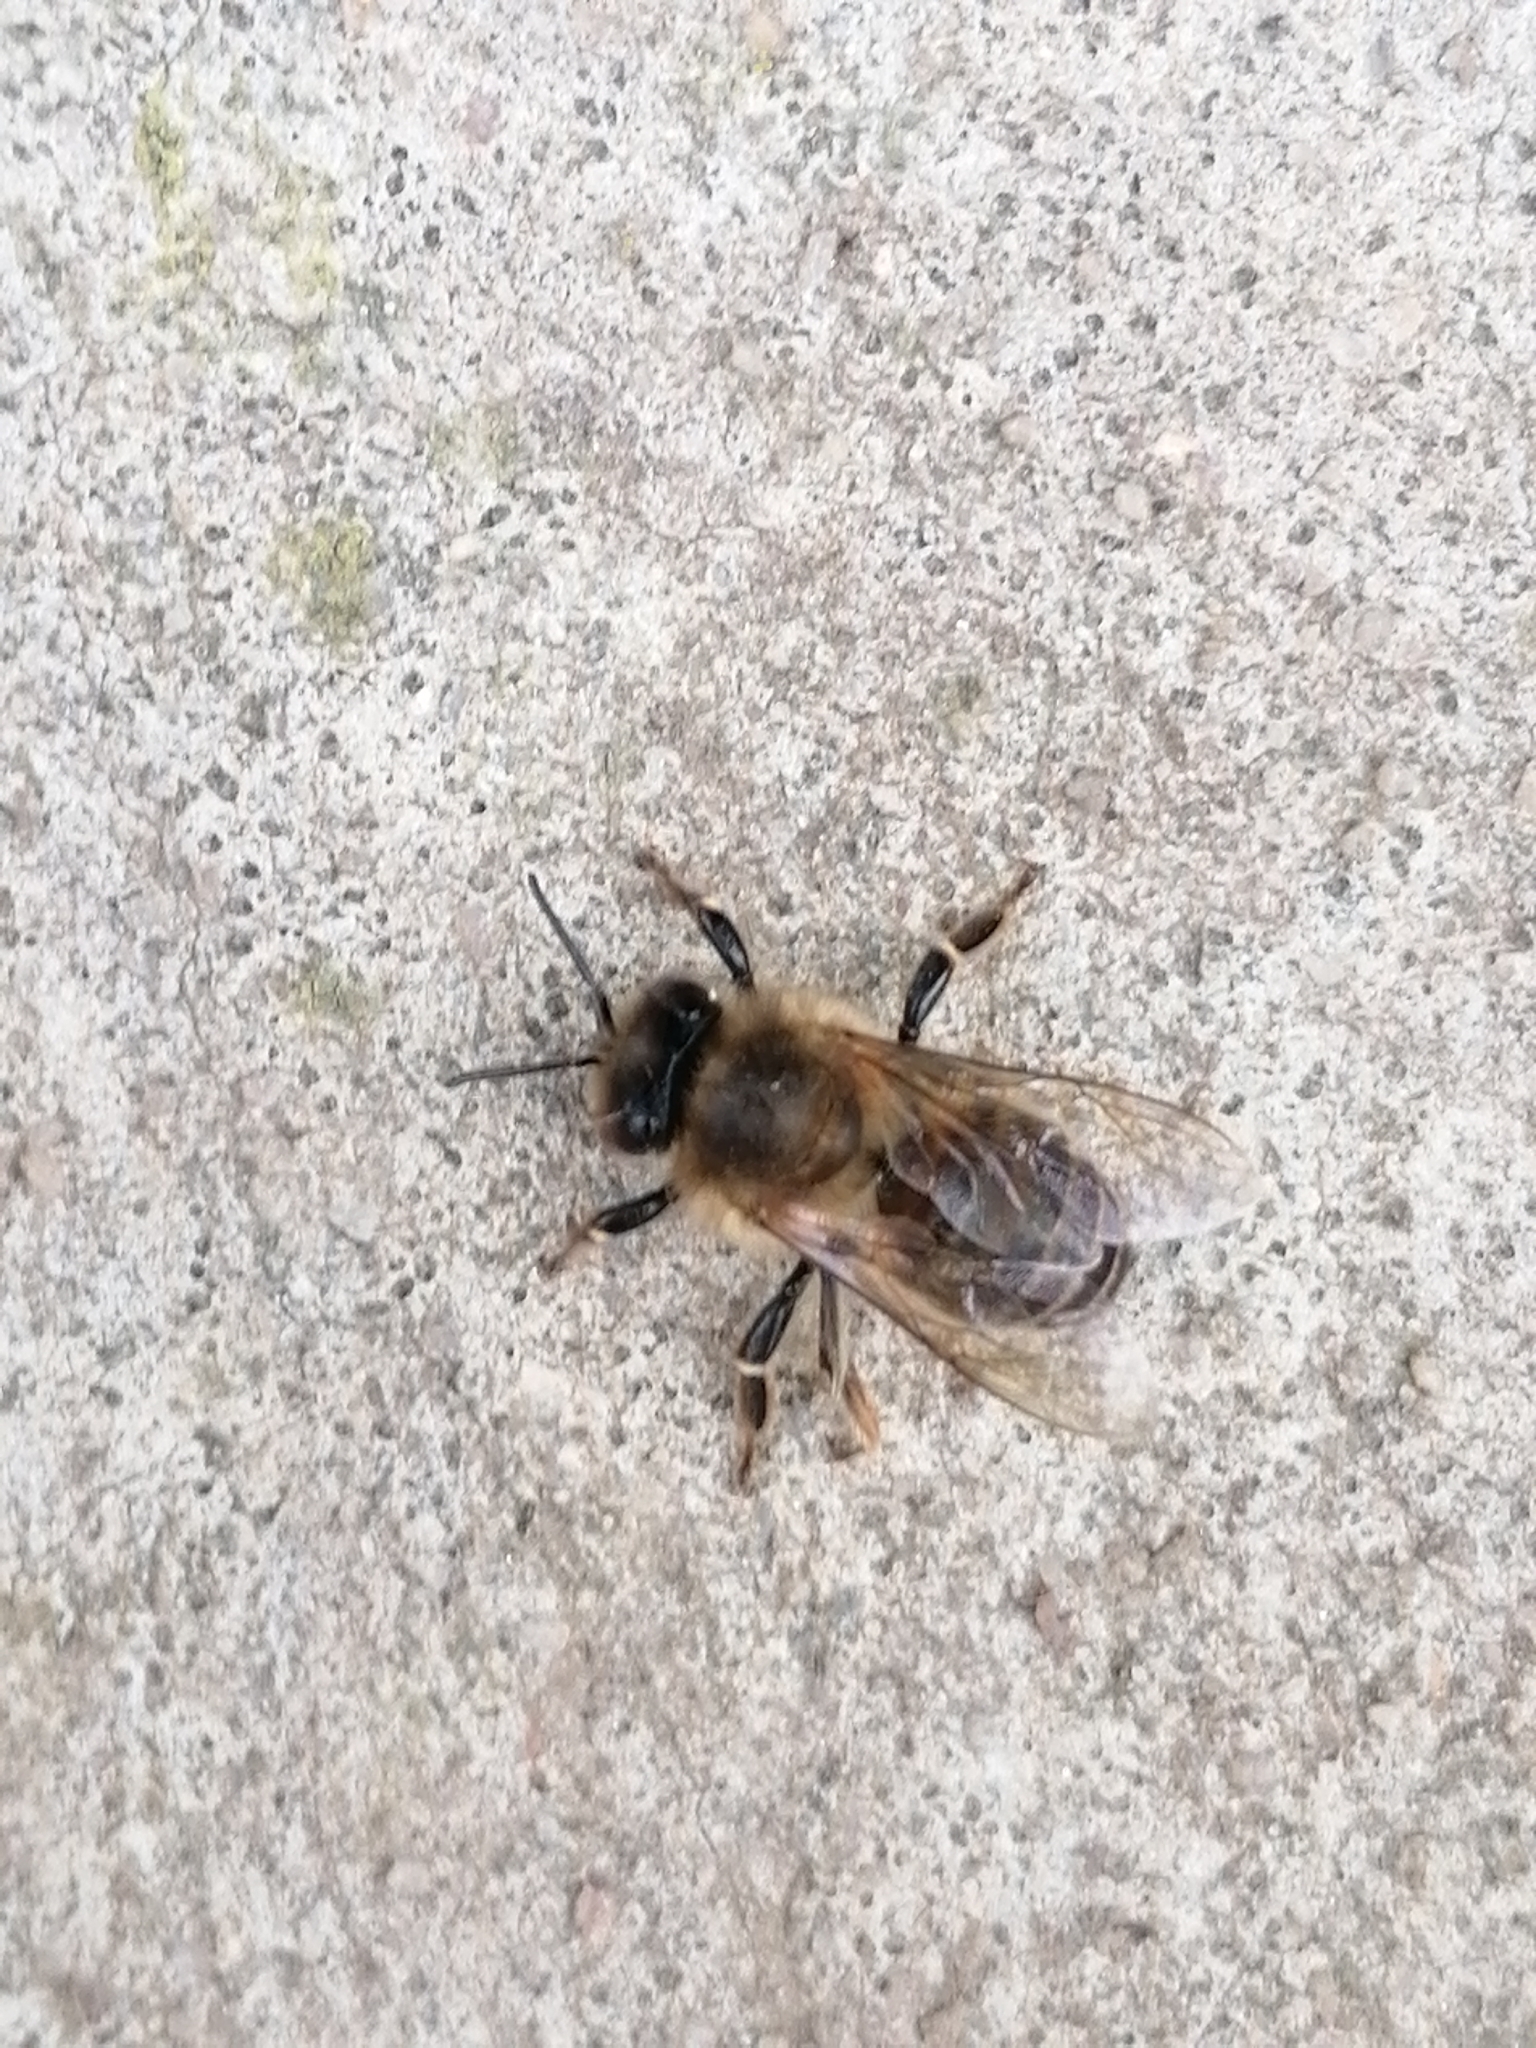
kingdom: Animalia
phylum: Arthropoda
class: Insecta
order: Hymenoptera
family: Apidae
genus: Apis
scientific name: Apis mellifera
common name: Honey bee
